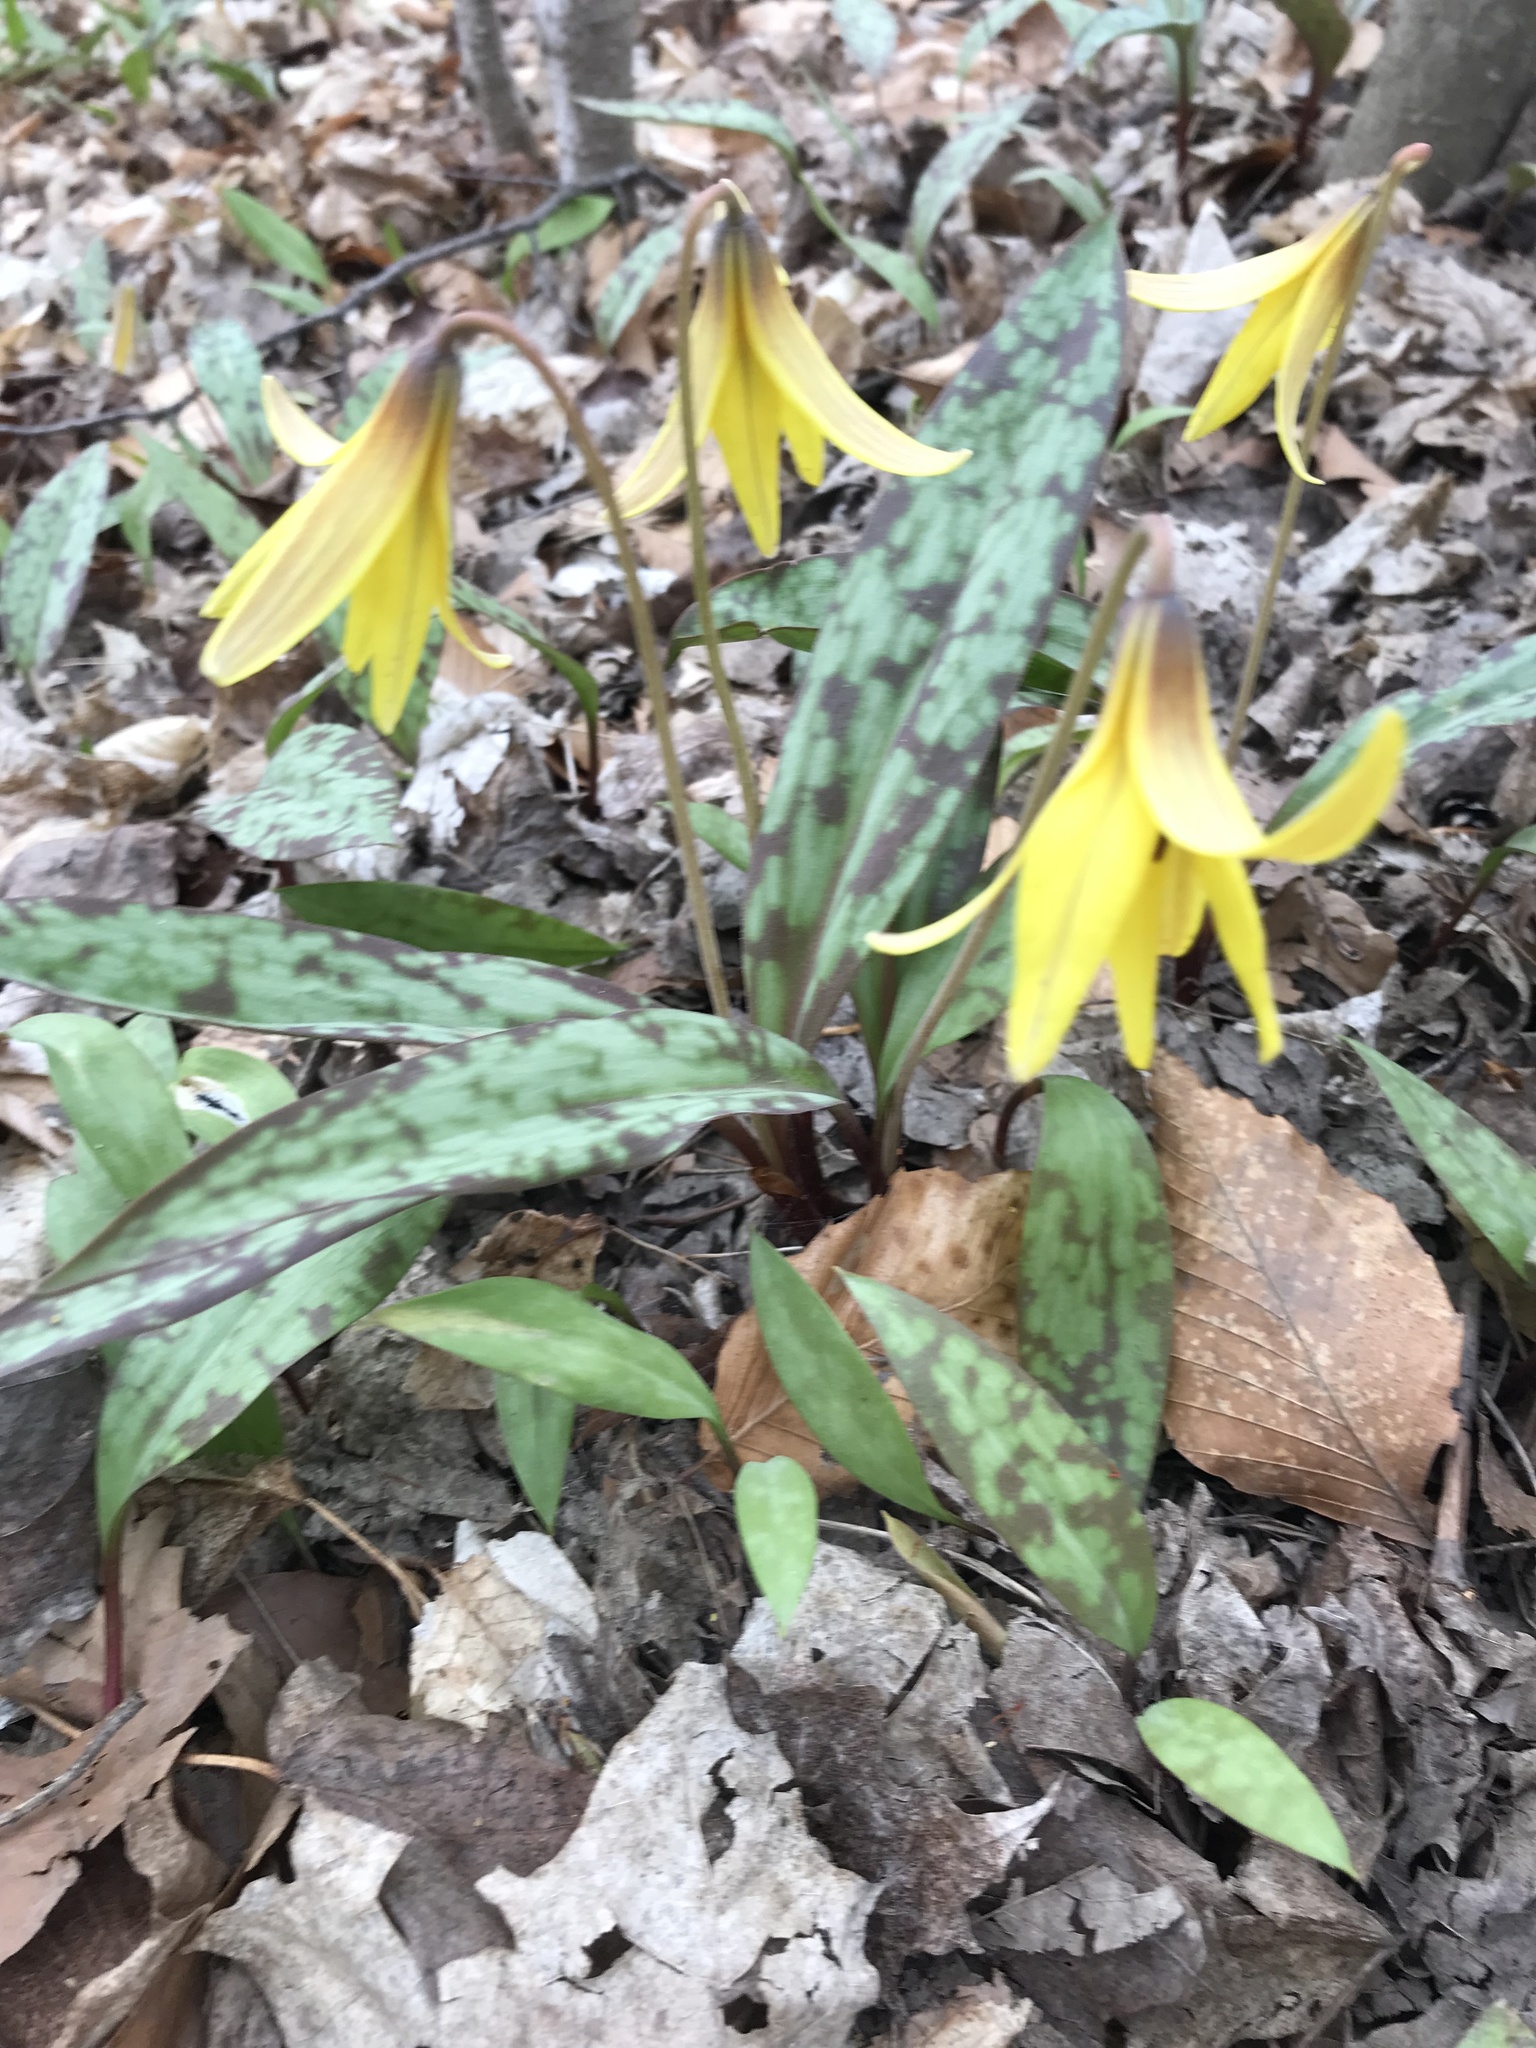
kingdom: Plantae
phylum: Tracheophyta
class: Liliopsida
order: Liliales
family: Liliaceae
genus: Erythronium
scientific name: Erythronium americanum
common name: Yellow adder's-tongue
